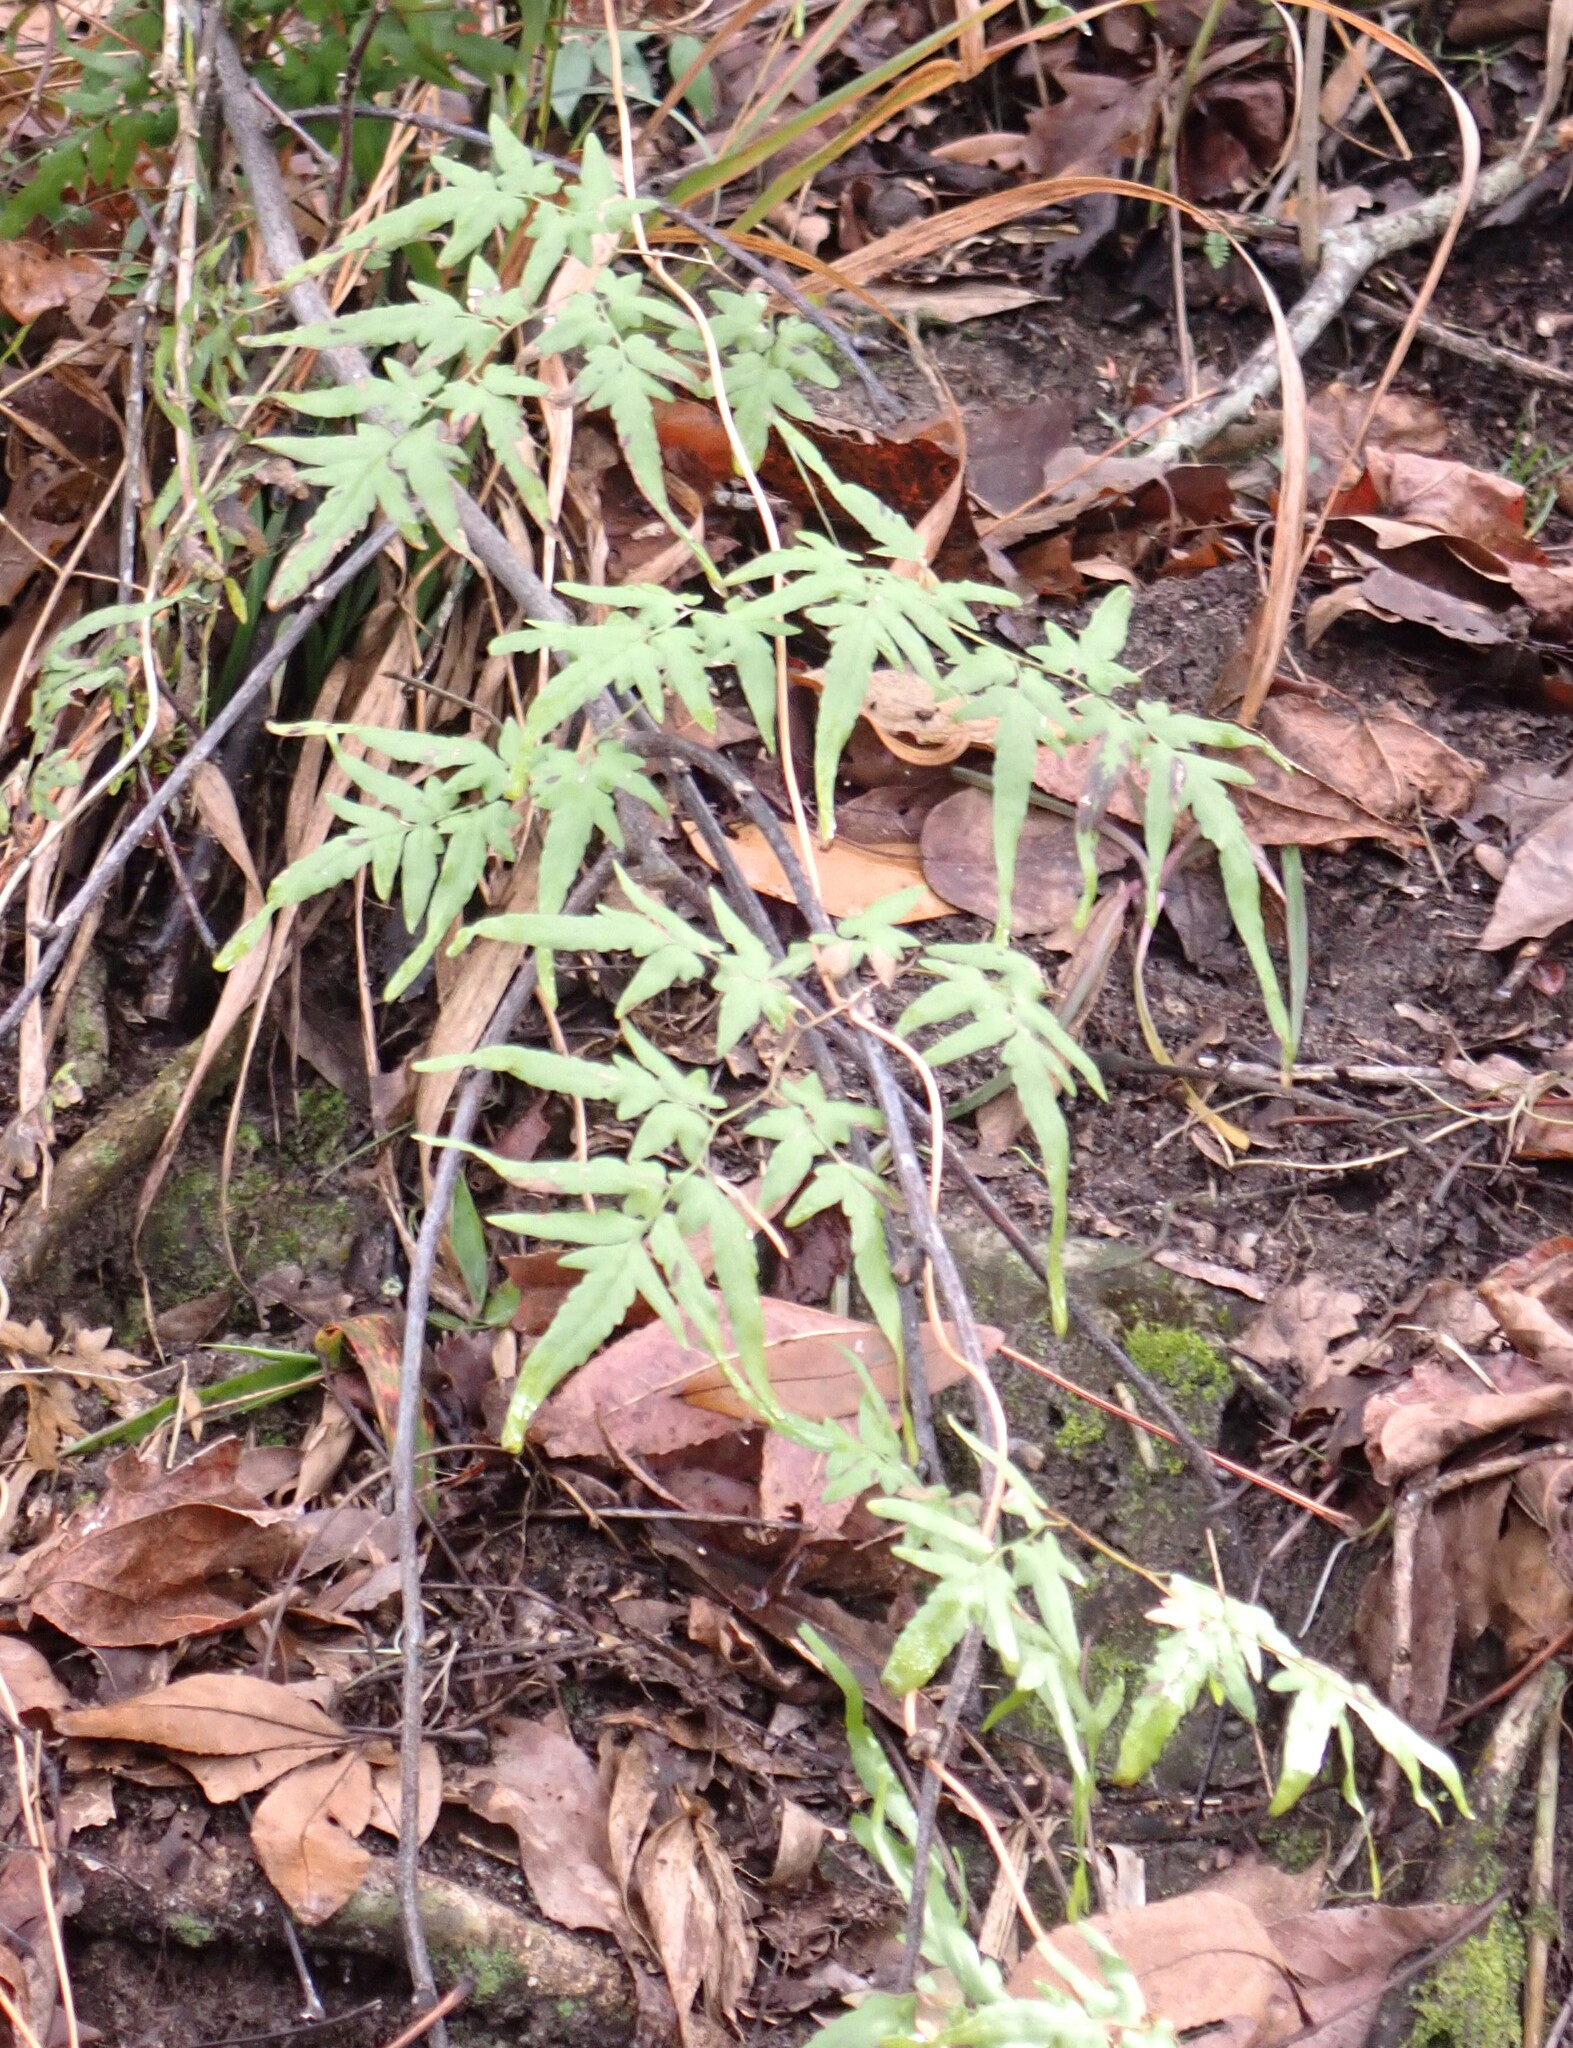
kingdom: Plantae
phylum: Tracheophyta
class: Polypodiopsida
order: Schizaeales
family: Lygodiaceae
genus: Lygodium
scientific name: Lygodium japonicum
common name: Japanese climbing fern
